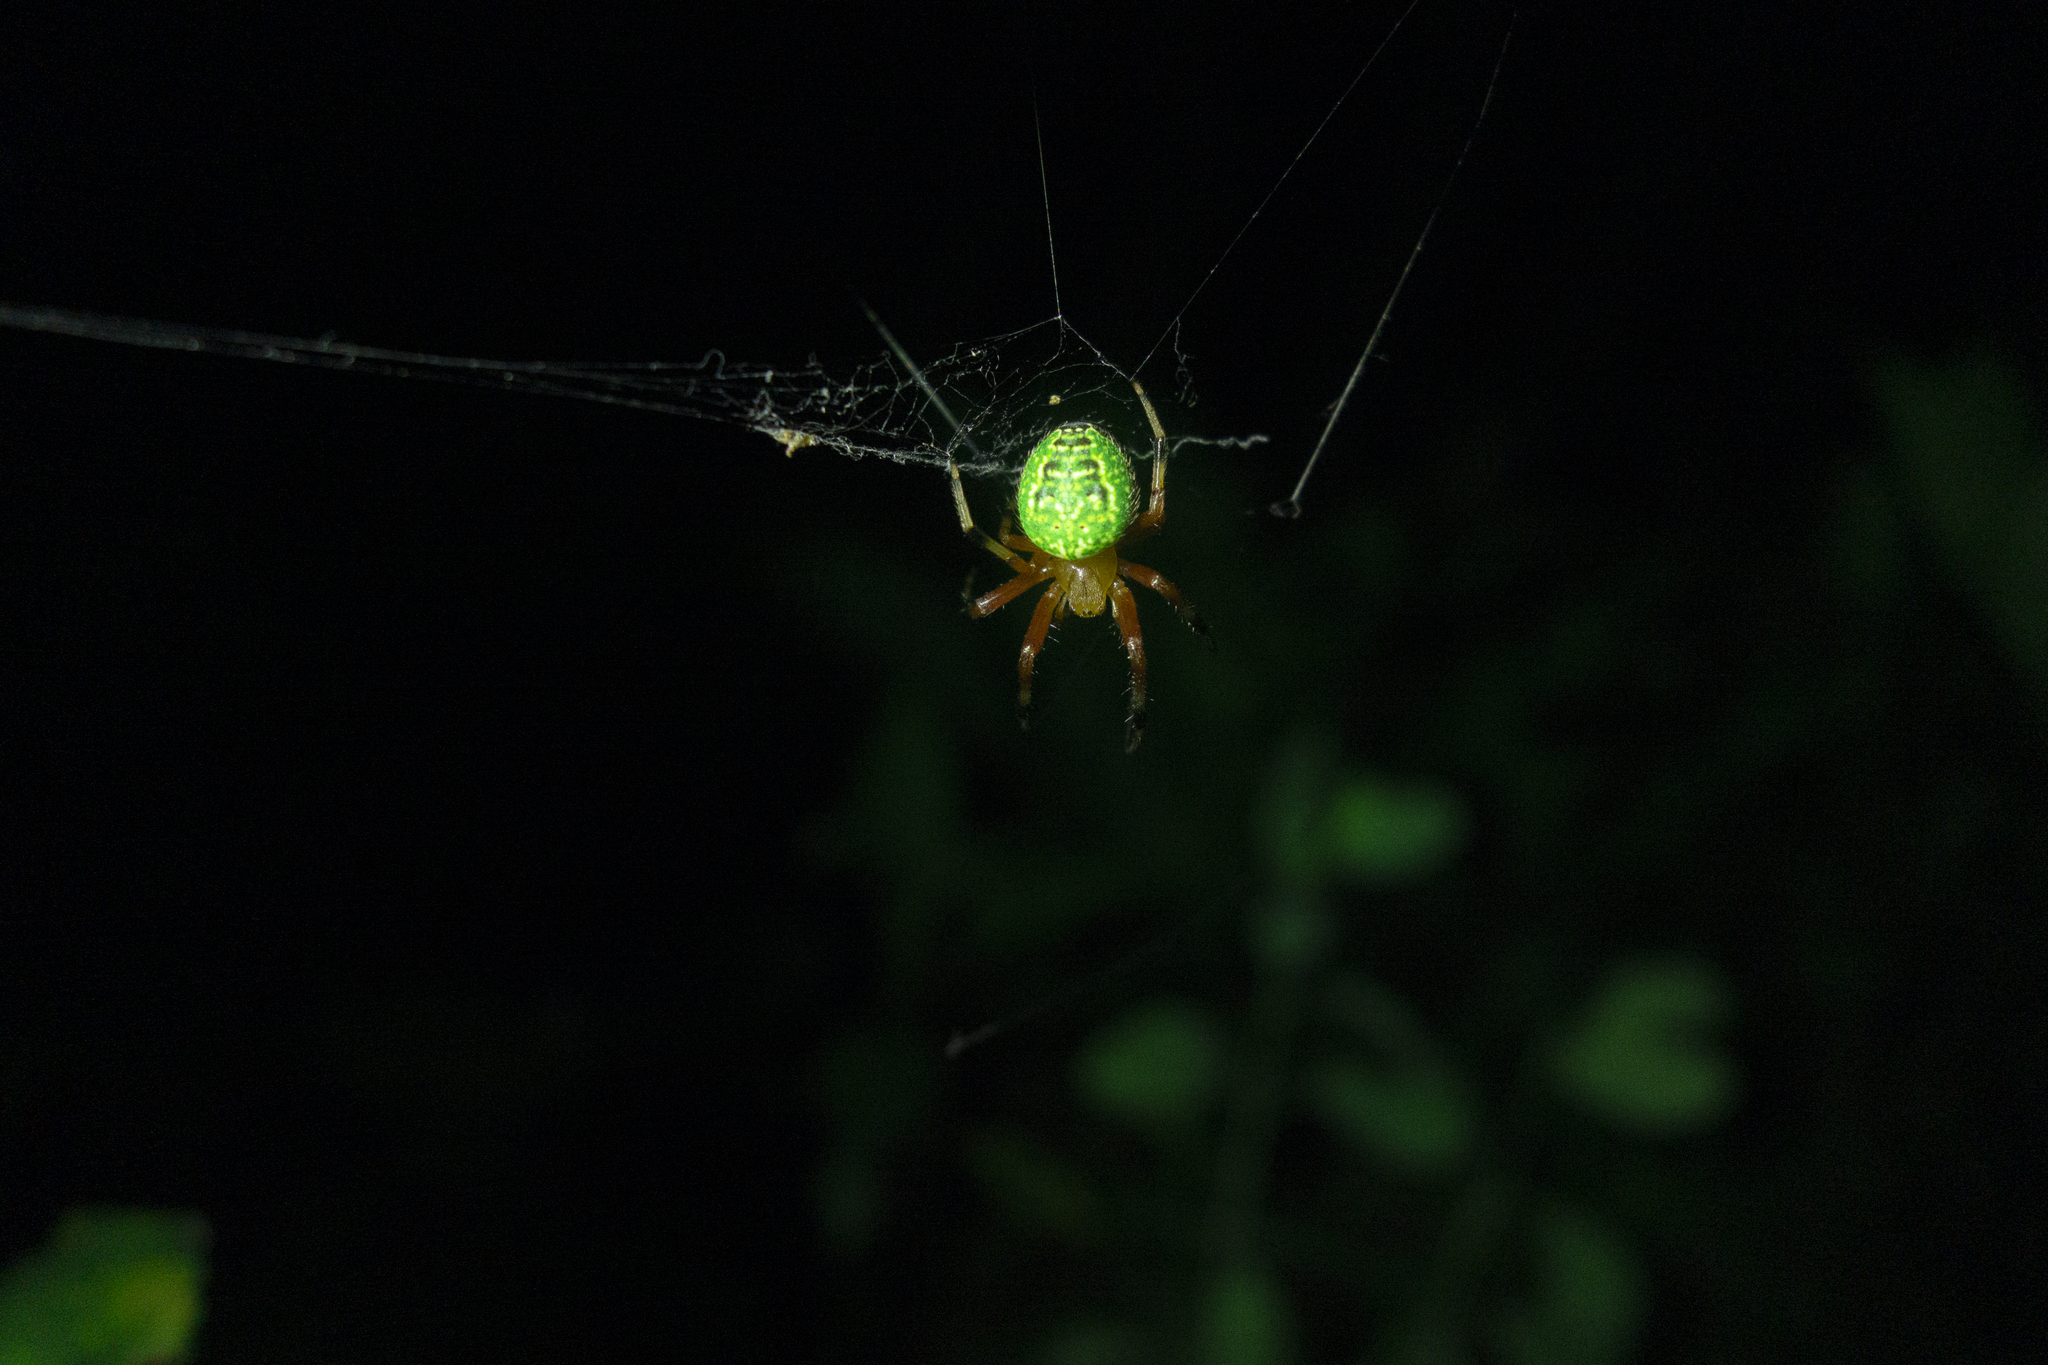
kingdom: Animalia
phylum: Arthropoda
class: Arachnida
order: Araneae
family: Araneidae
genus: Araneus
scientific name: Araneus guttatus
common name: Orb weavers
